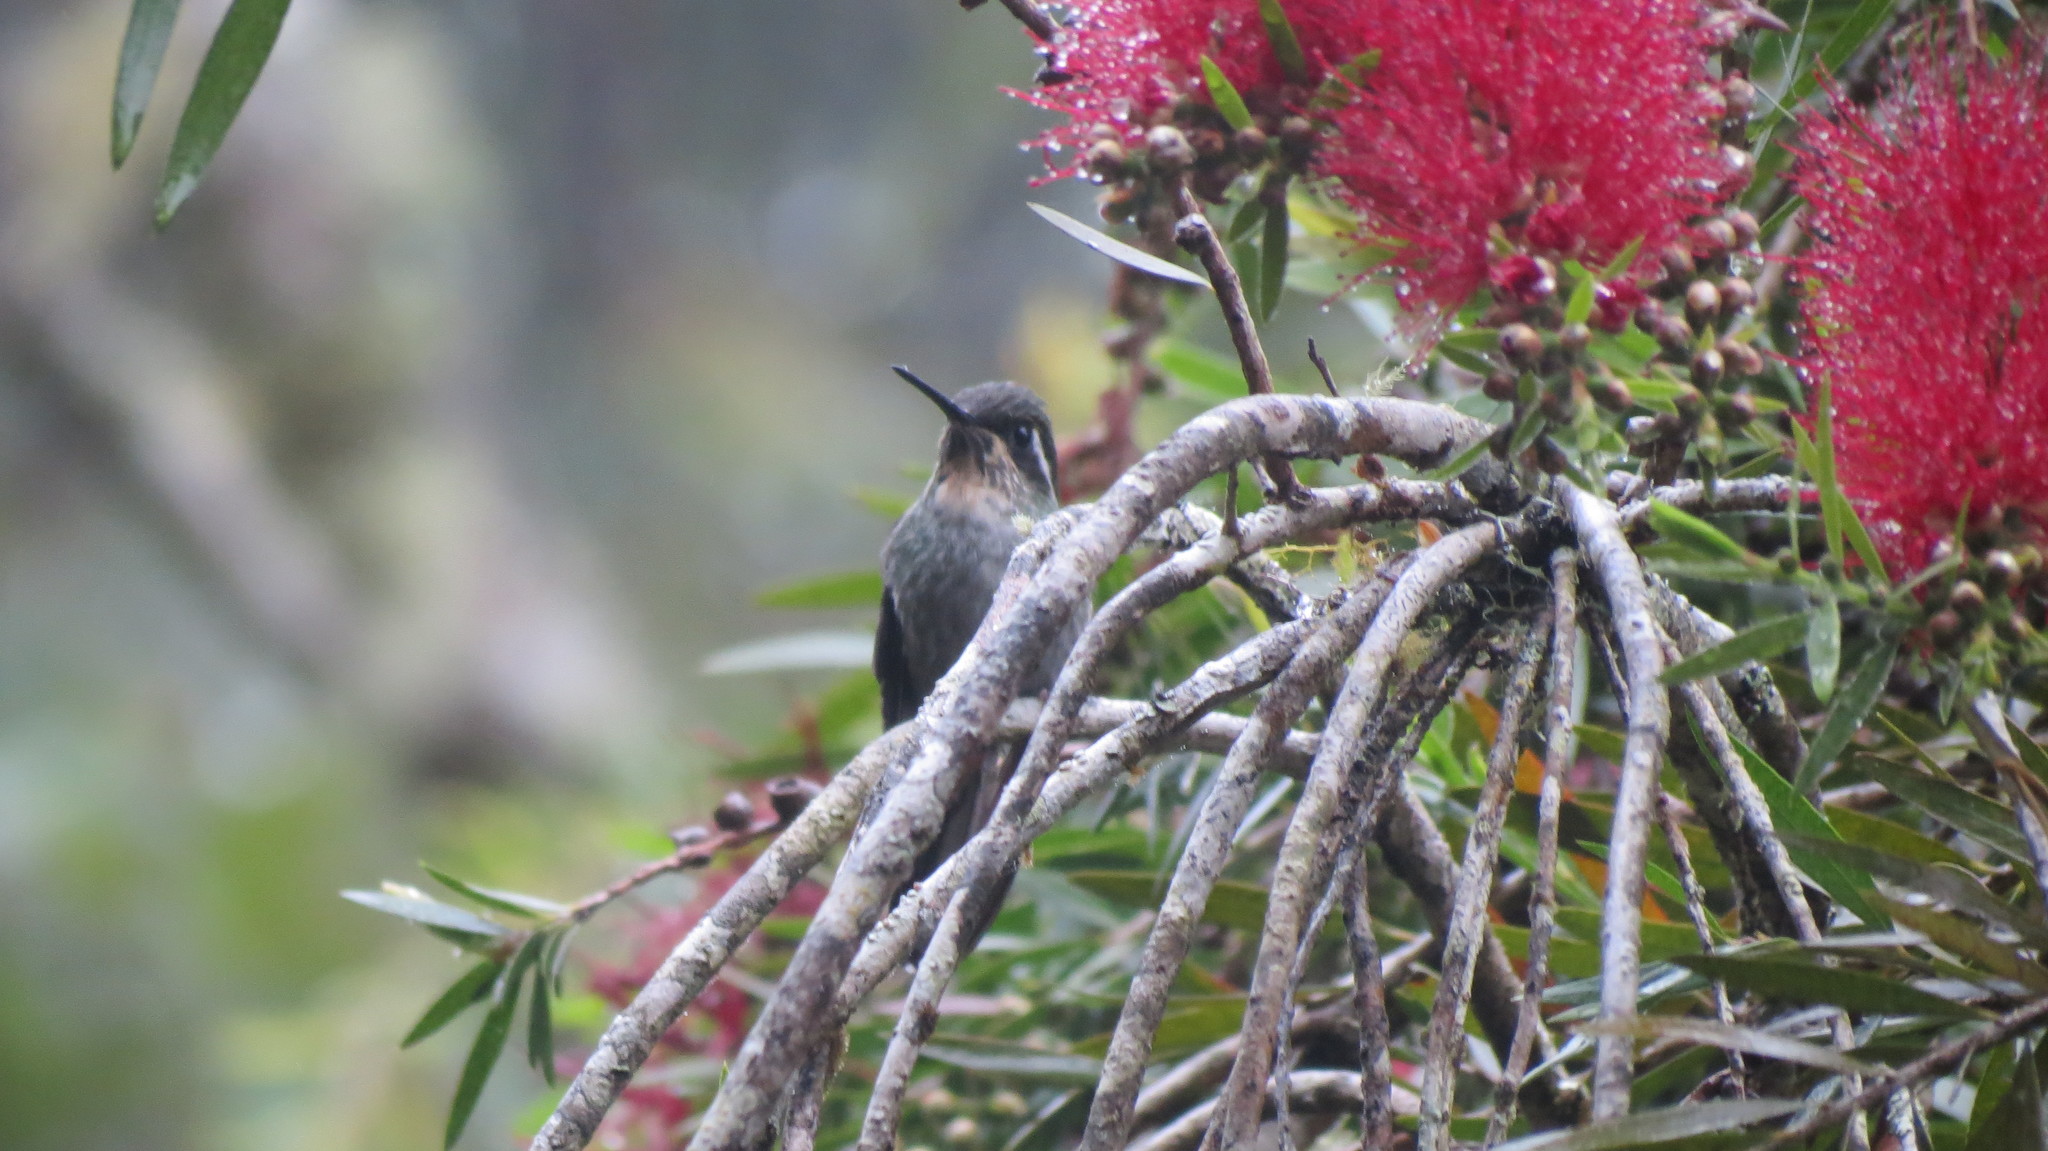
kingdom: Animalia
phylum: Chordata
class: Aves
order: Apodiformes
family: Trochilidae
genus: Lampornis
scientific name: Lampornis sybillae
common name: Green-breasted mountain-gem
